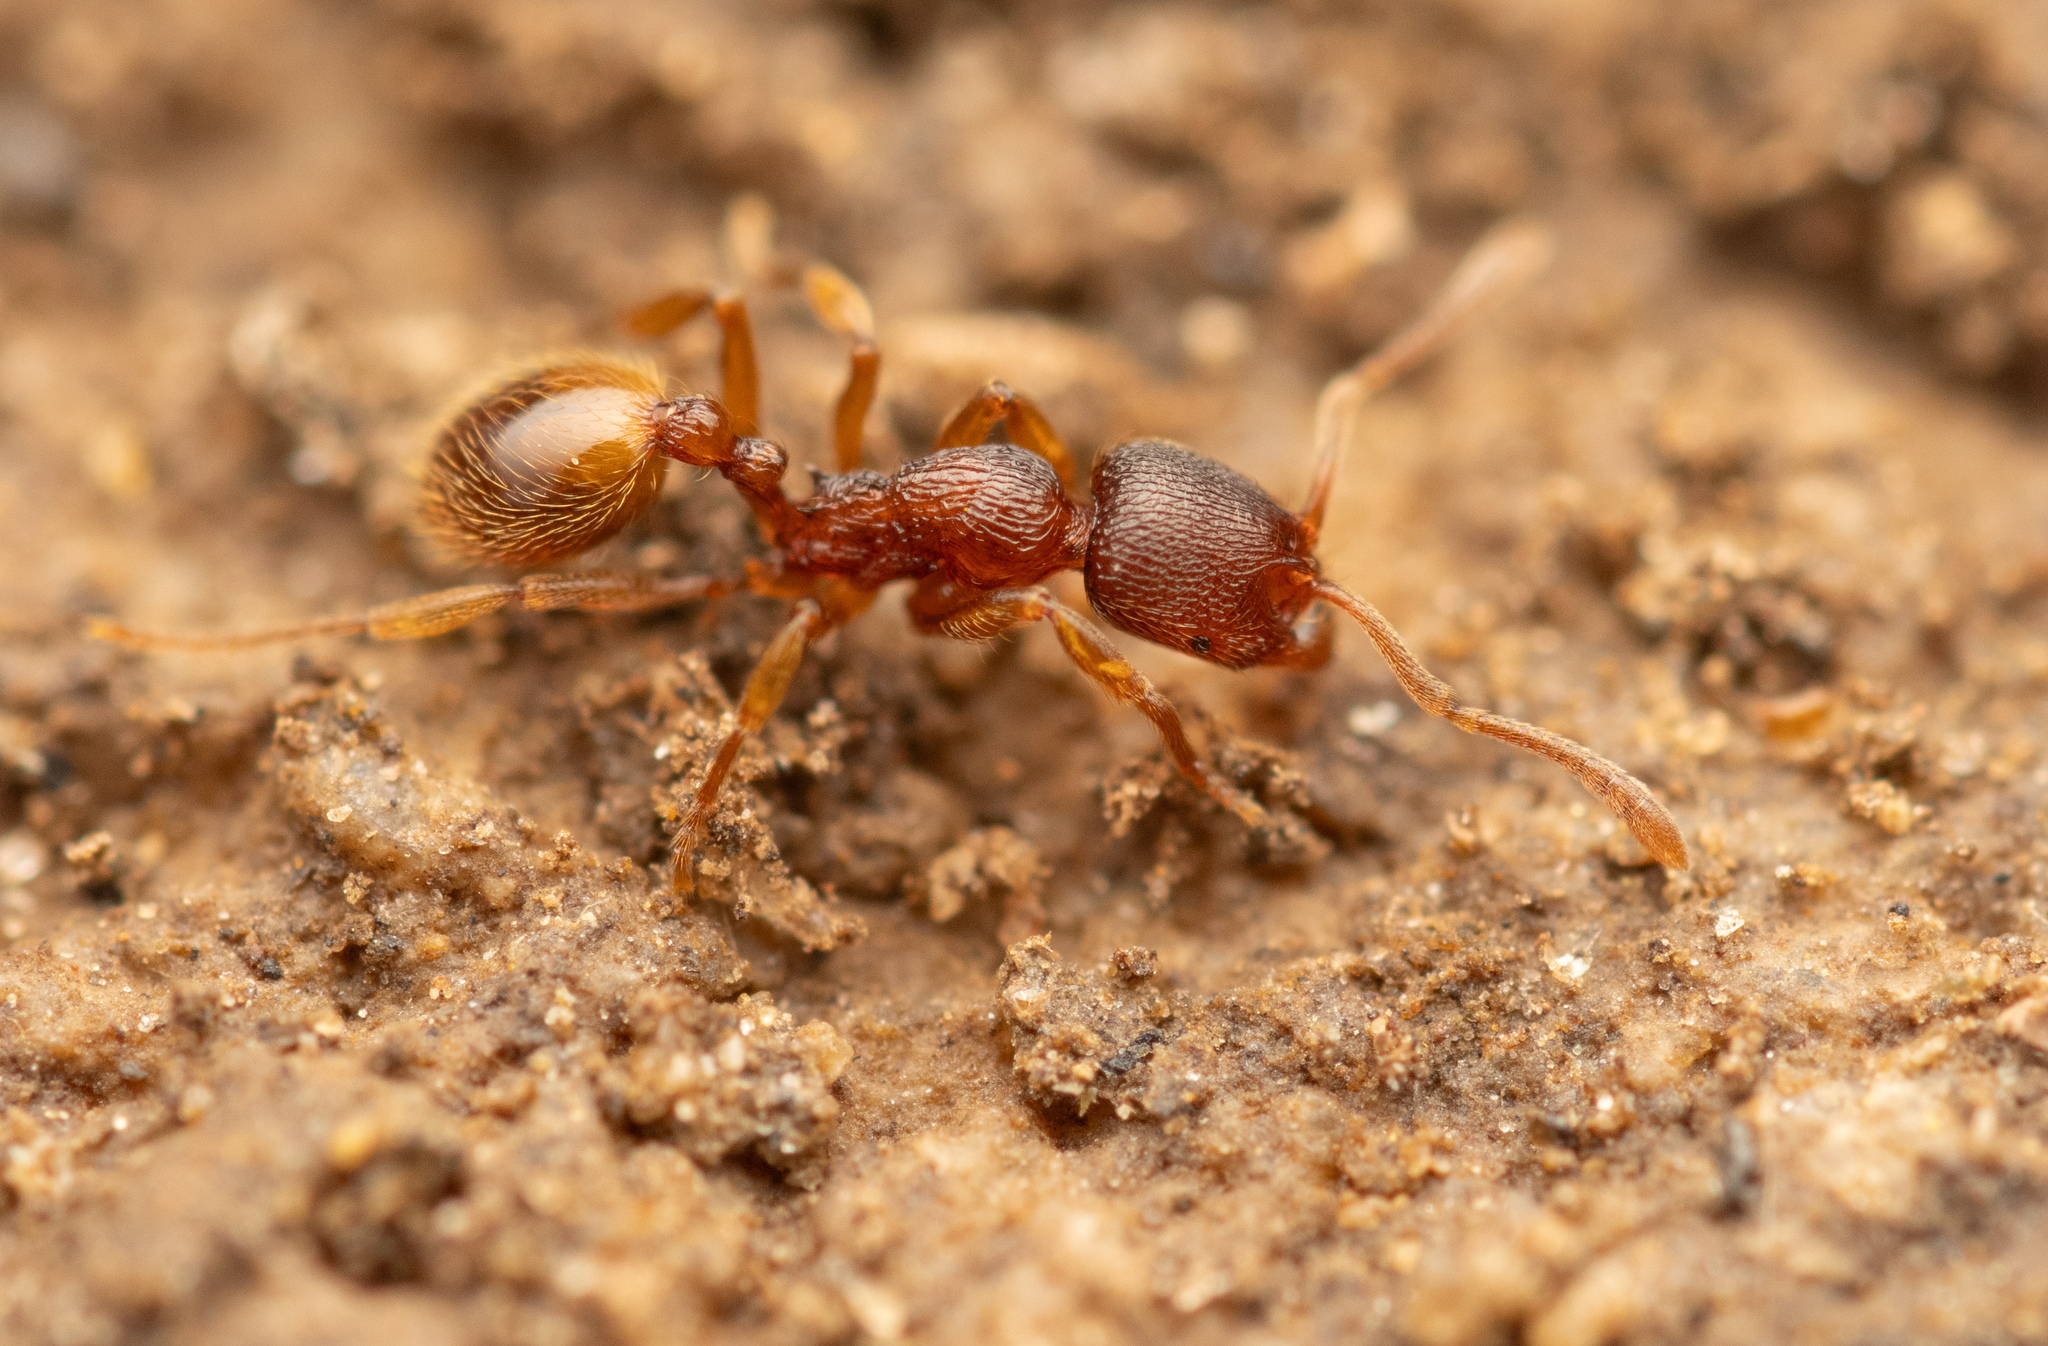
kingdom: Animalia
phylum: Arthropoda
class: Insecta
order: Hymenoptera
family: Formicidae
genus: Stenamma
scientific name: Stenamma debile
